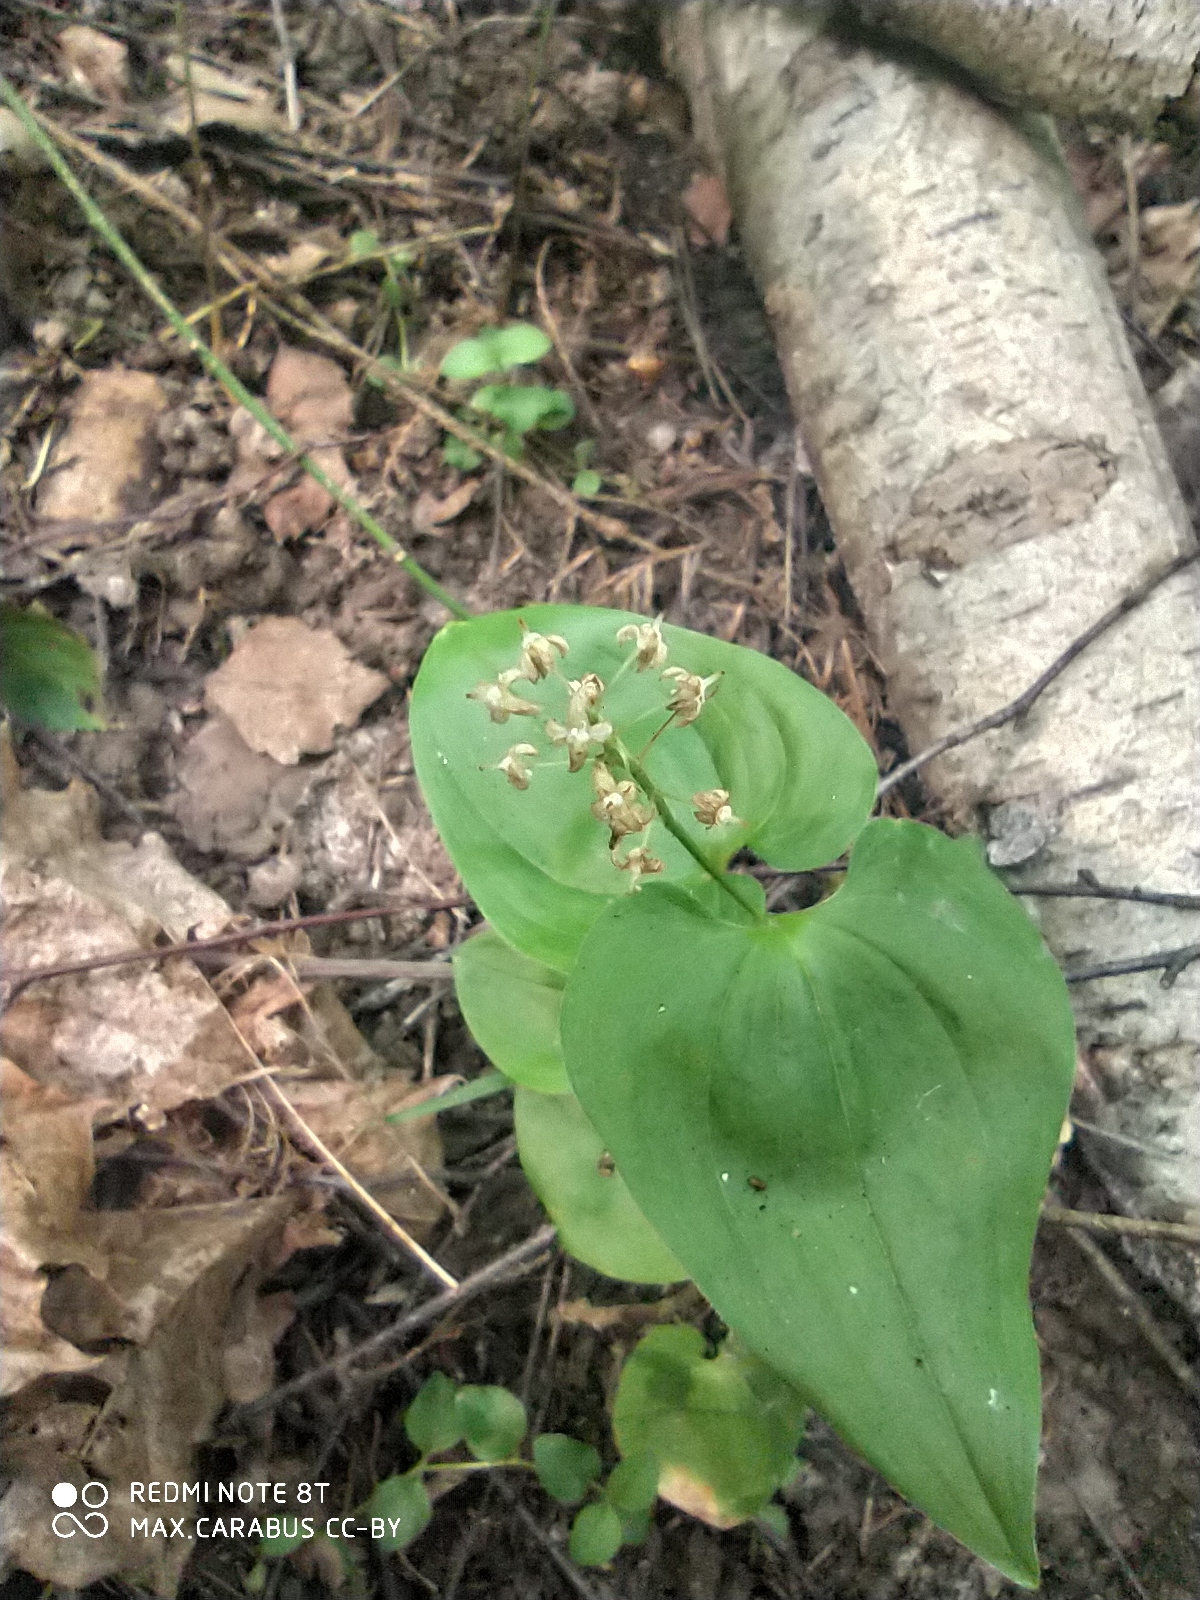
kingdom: Plantae
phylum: Tracheophyta
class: Liliopsida
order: Asparagales
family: Asparagaceae
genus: Maianthemum
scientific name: Maianthemum bifolium
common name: May lily
